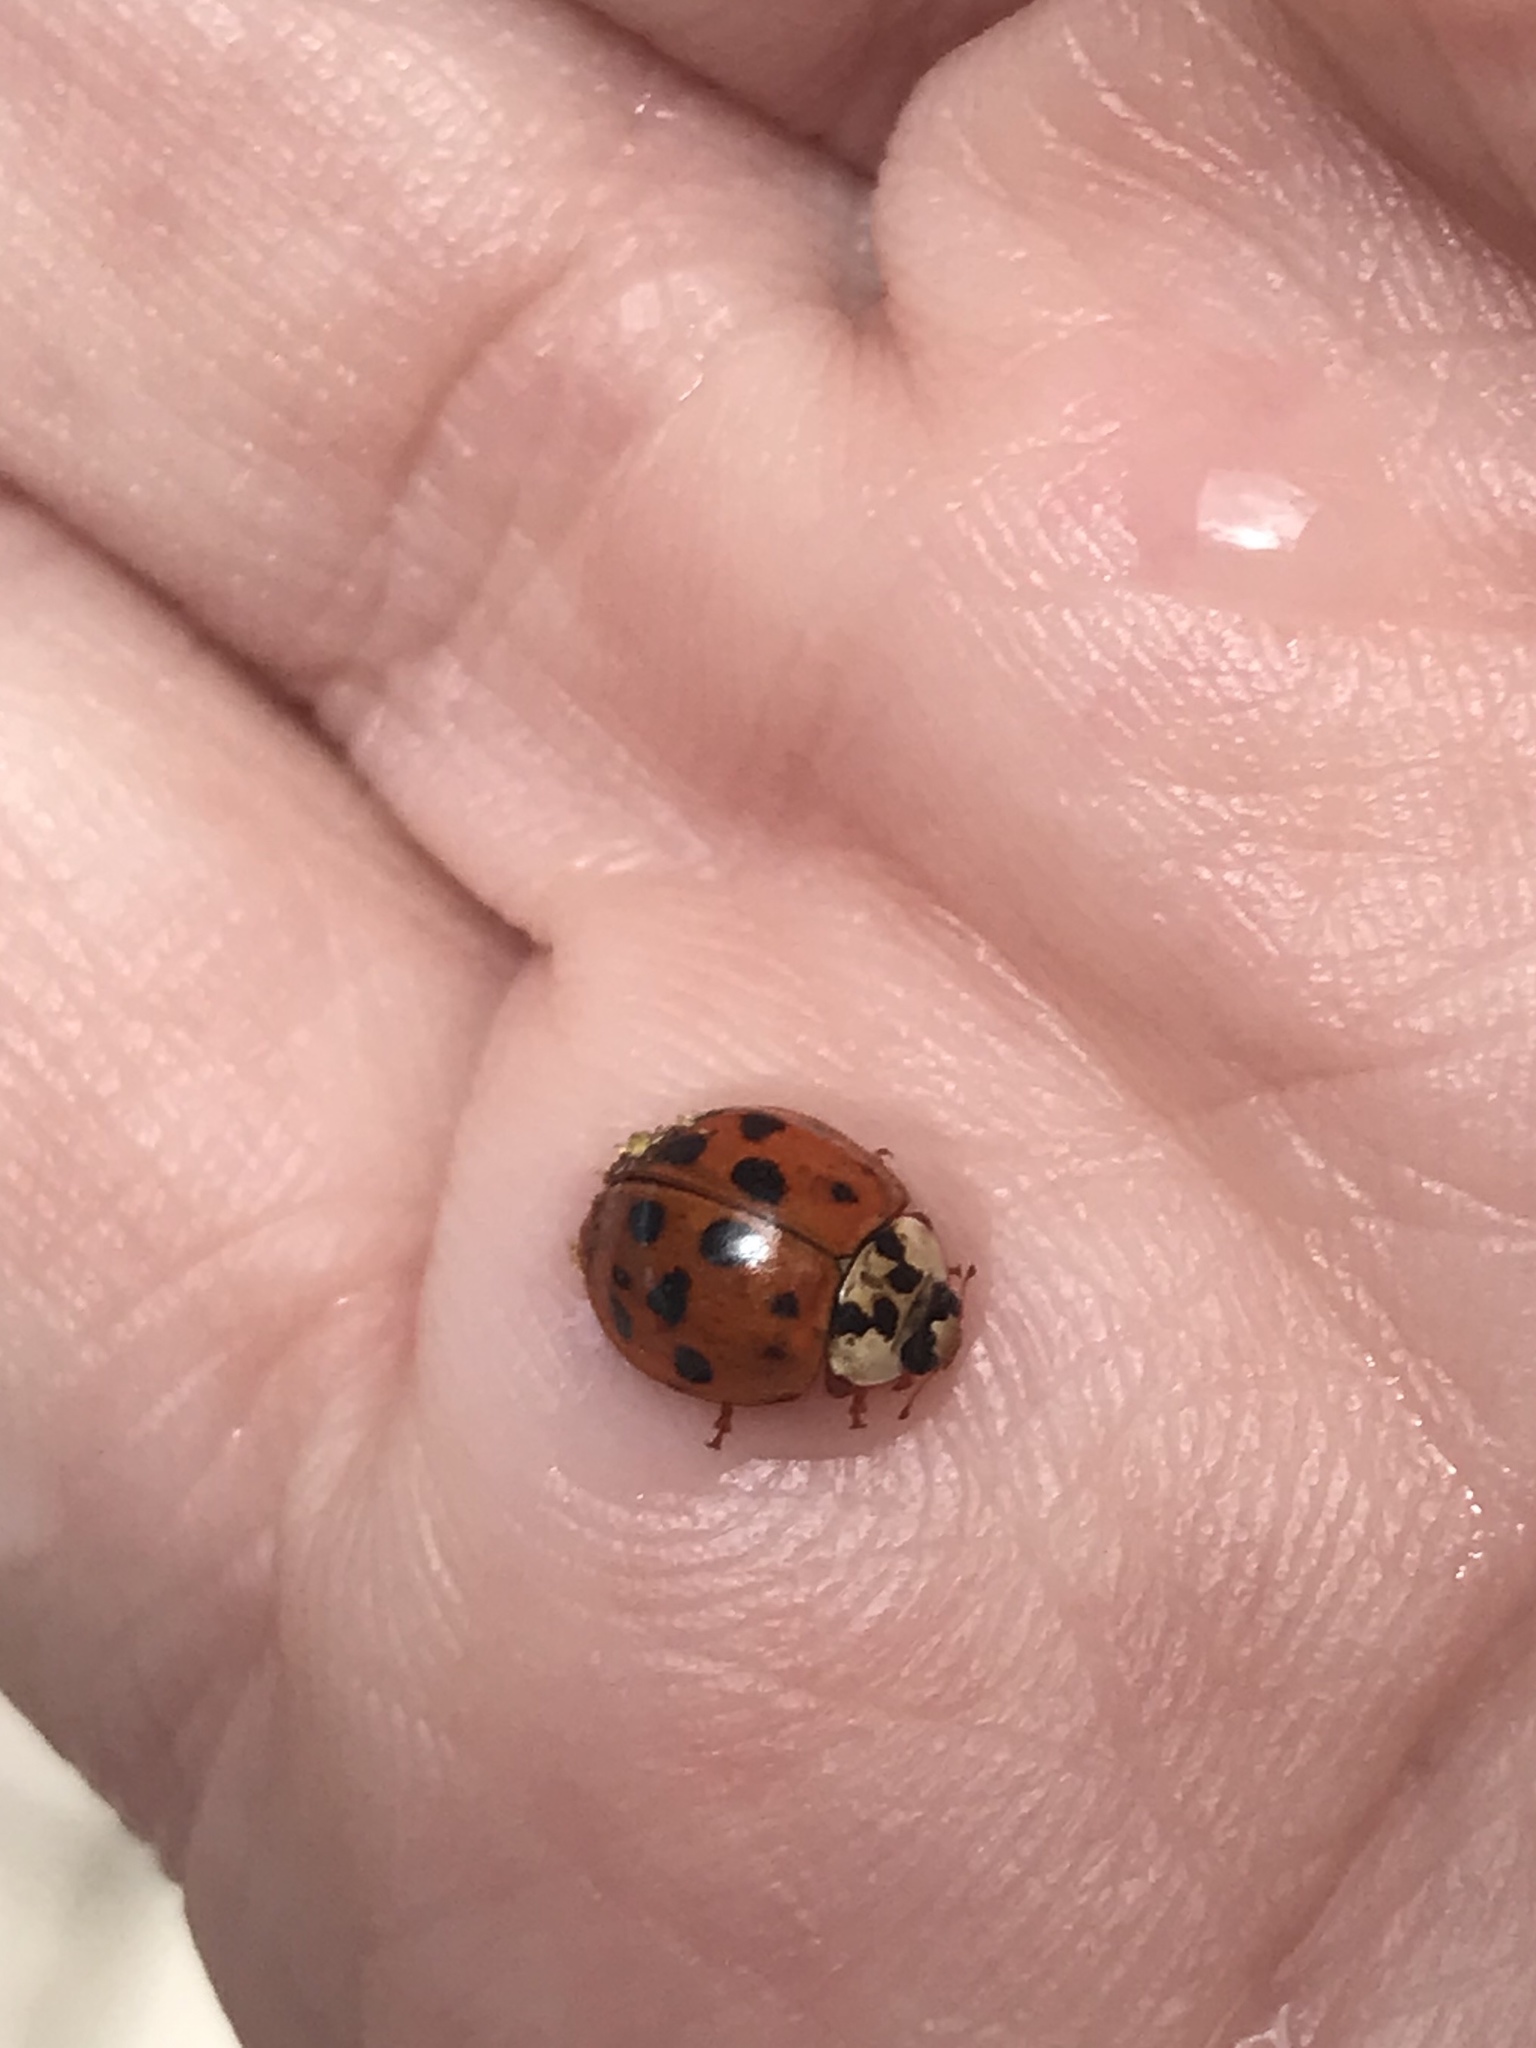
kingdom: Animalia
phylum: Arthropoda
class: Insecta
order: Coleoptera
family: Coccinellidae
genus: Harmonia
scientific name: Harmonia axyridis
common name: Harlequin ladybird
